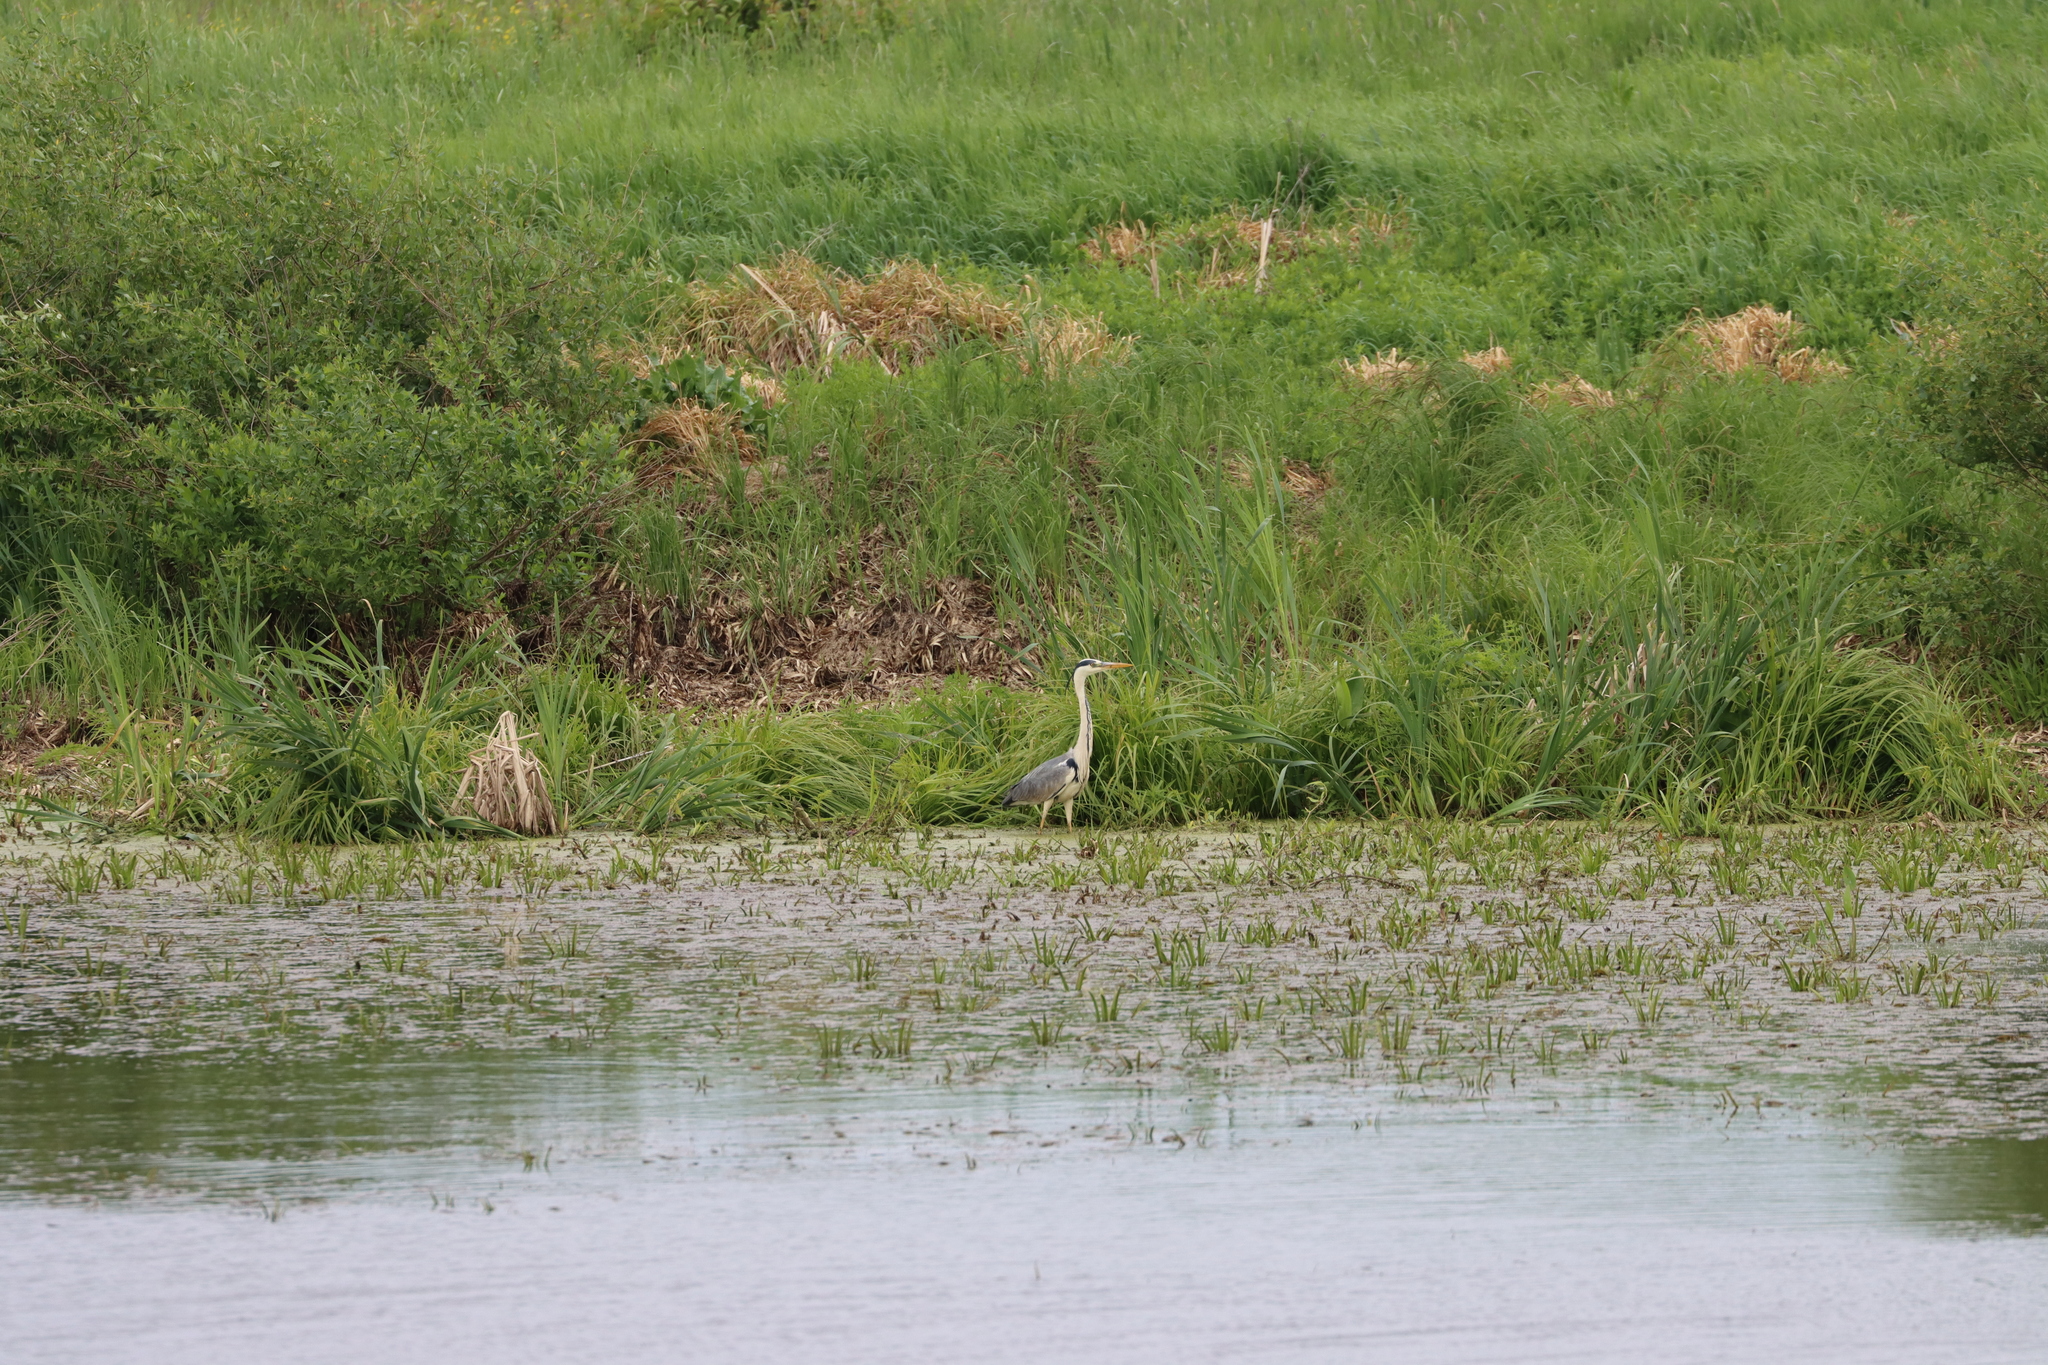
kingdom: Animalia
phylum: Chordata
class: Aves
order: Pelecaniformes
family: Ardeidae
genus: Ardea
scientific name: Ardea cinerea
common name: Grey heron
